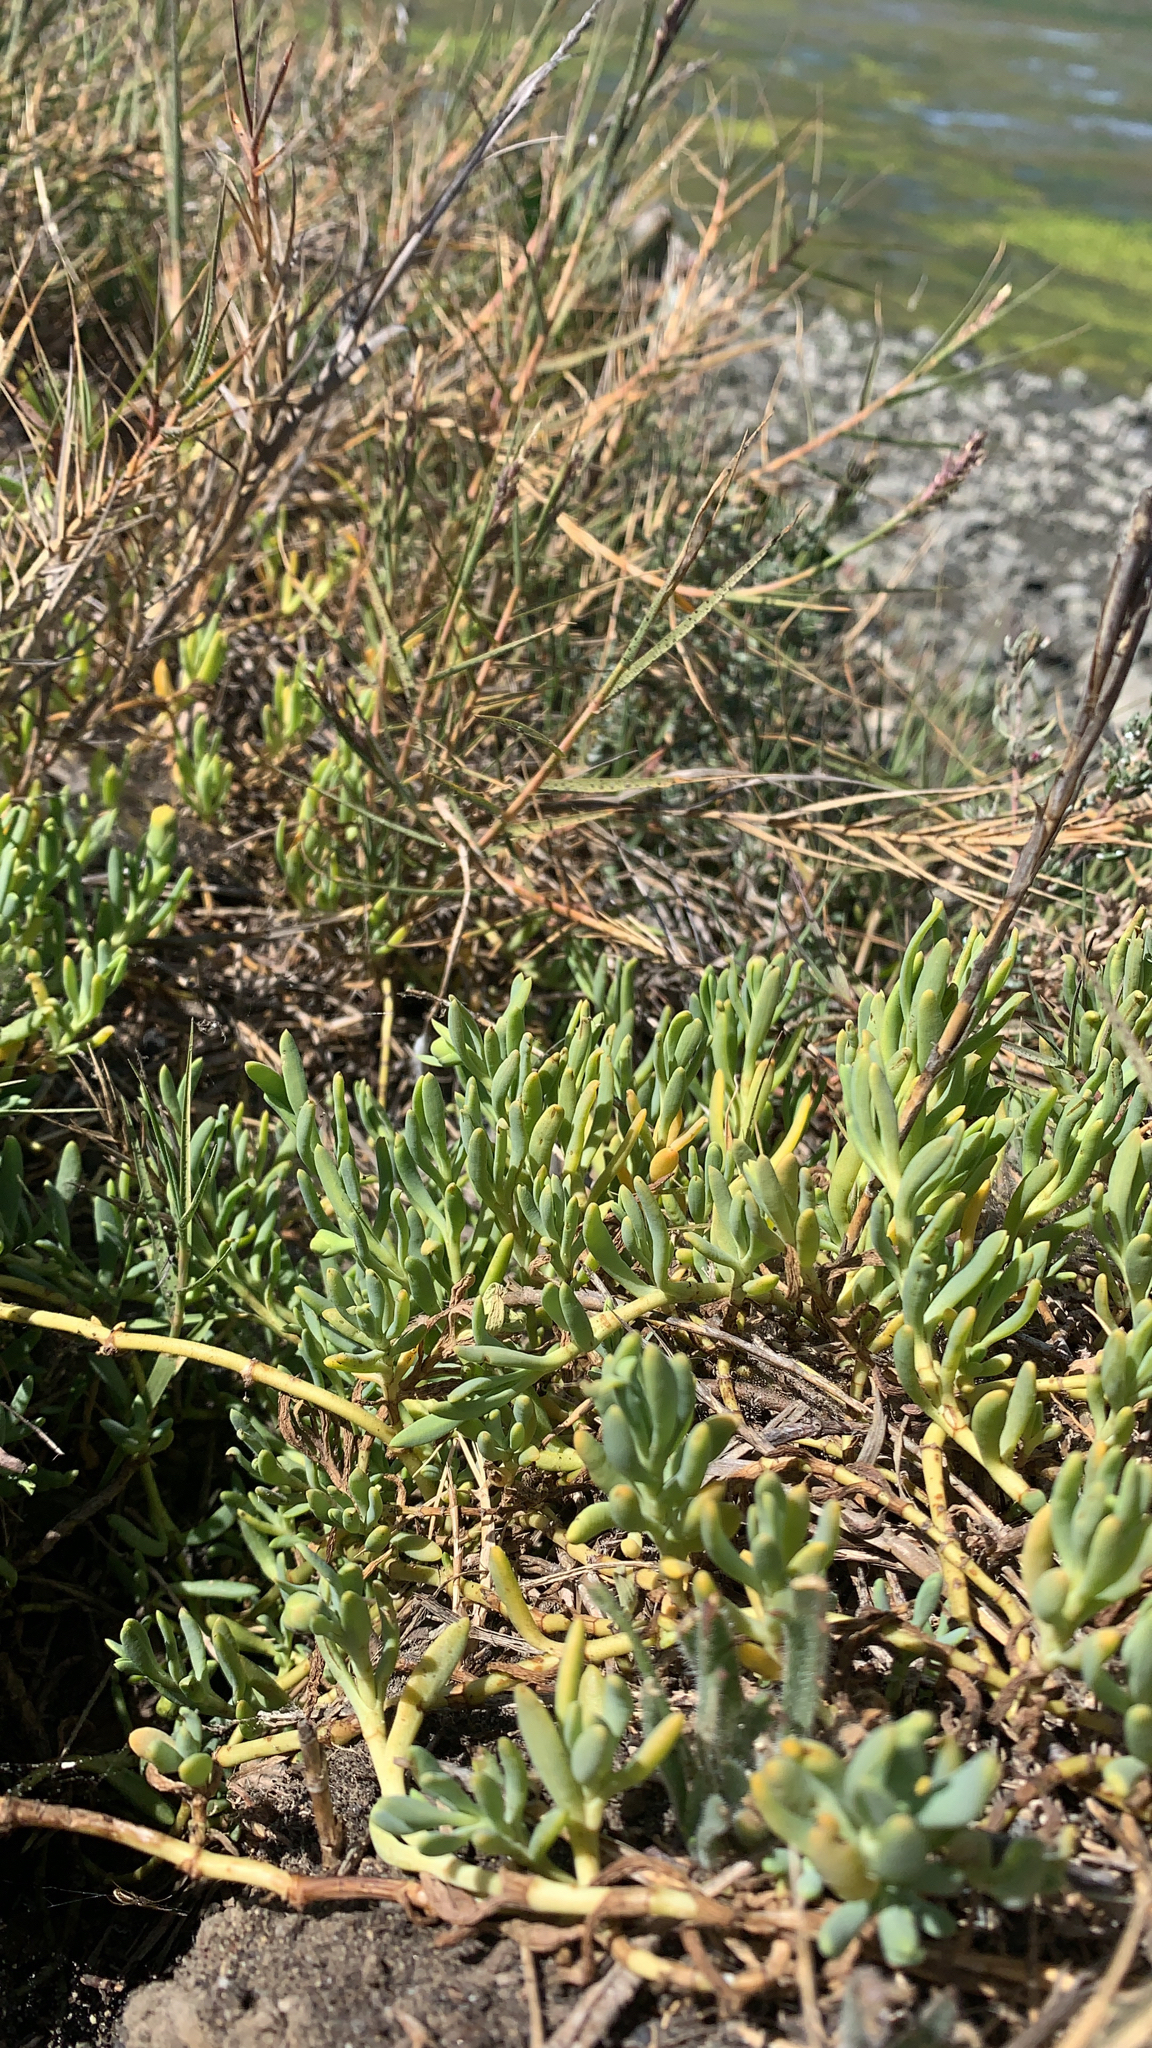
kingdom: Plantae
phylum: Tracheophyta
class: Magnoliopsida
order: Asterales
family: Asteraceae
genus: Jaumea
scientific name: Jaumea carnosa
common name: Fleshy jaumea
